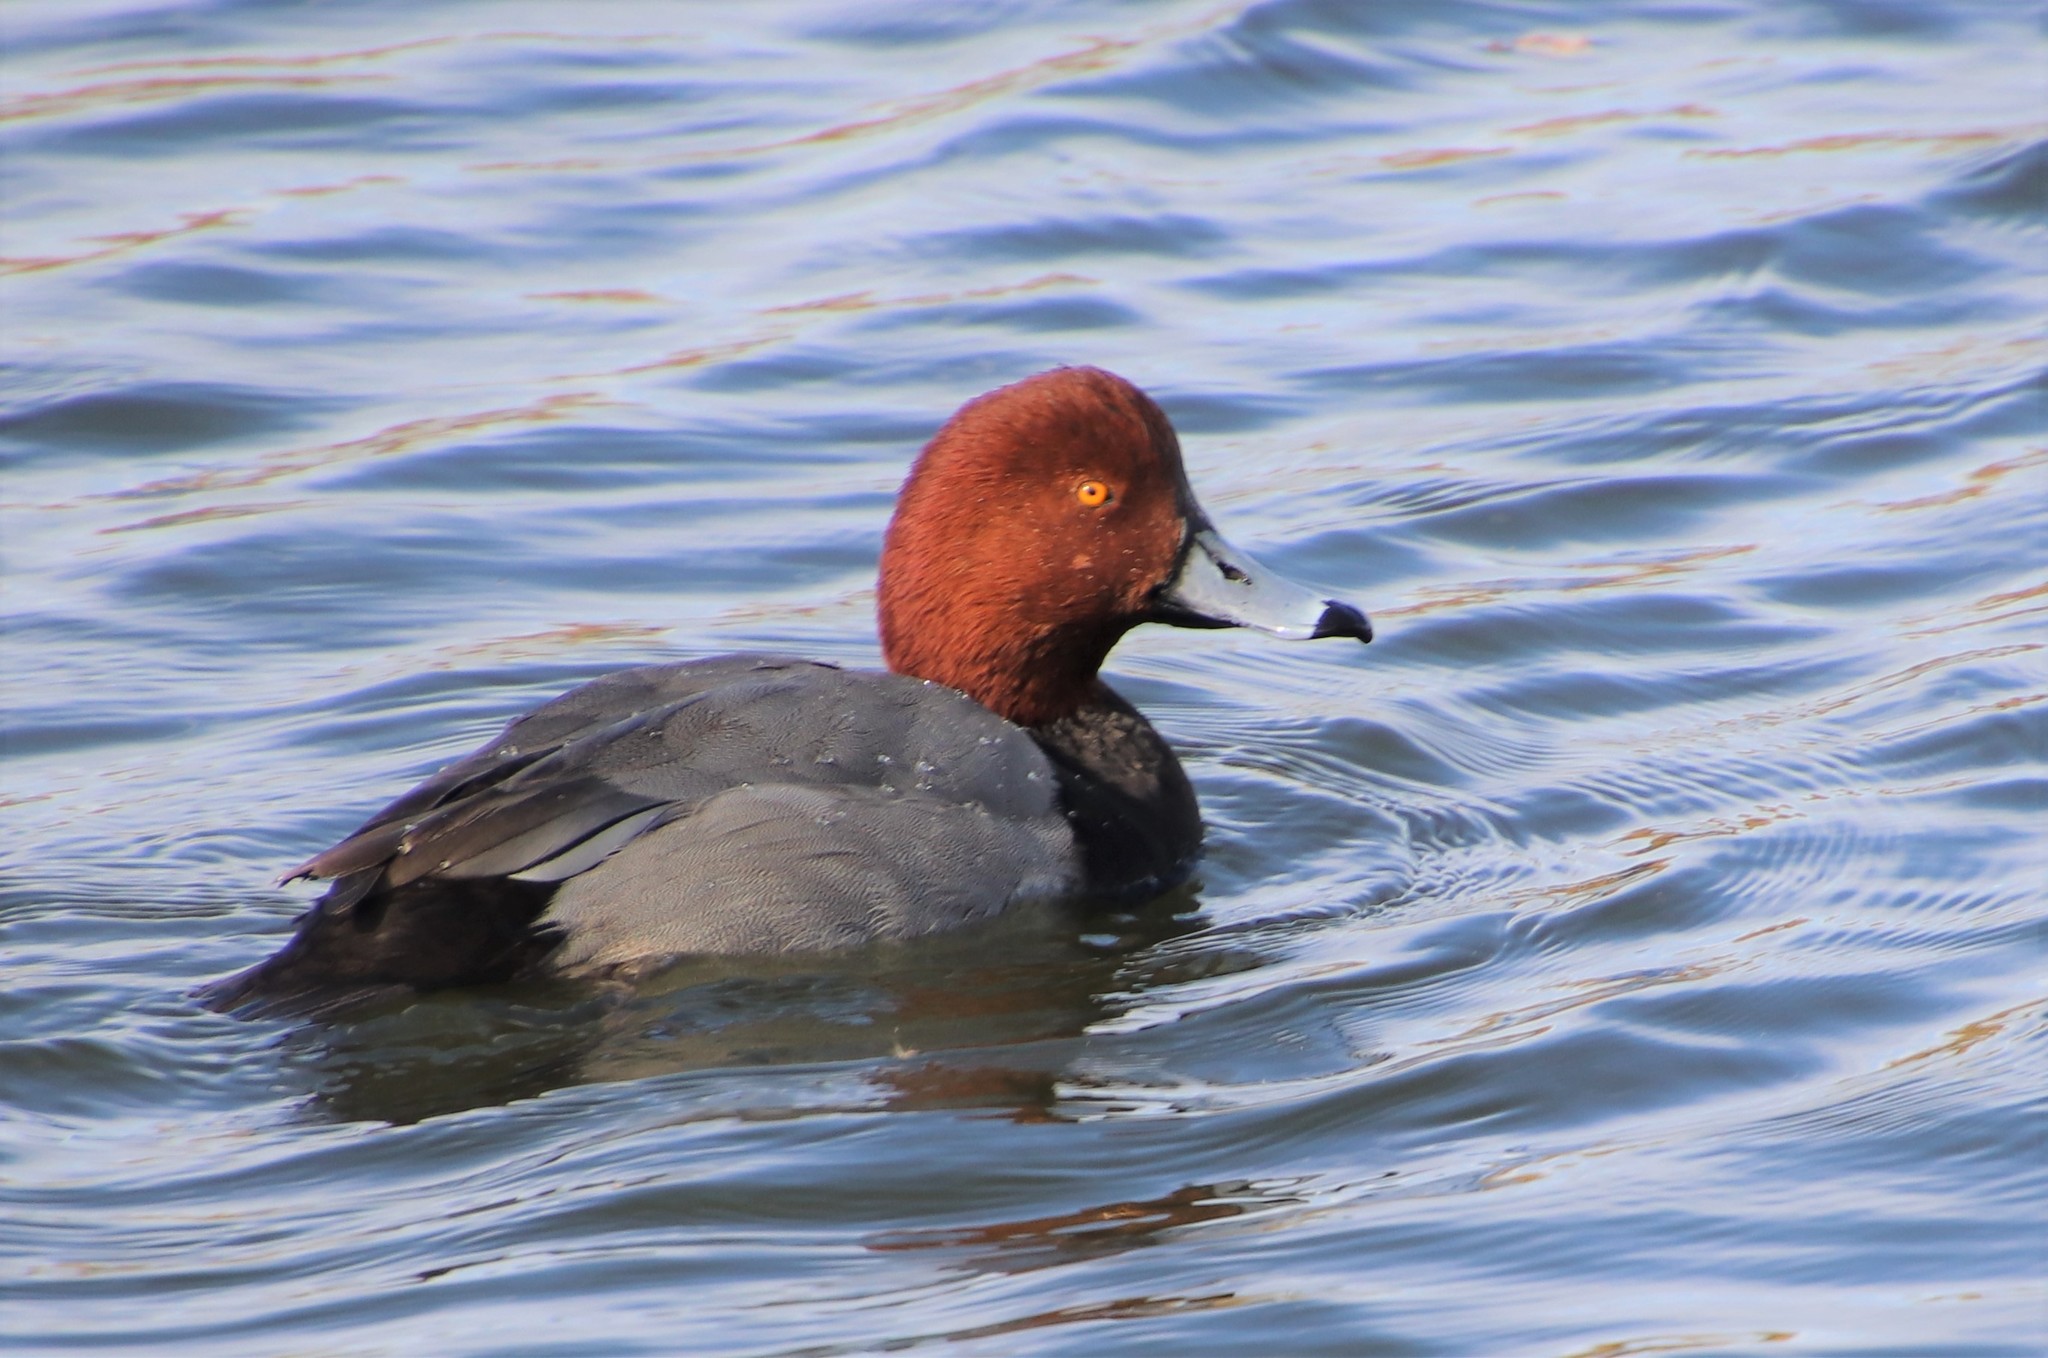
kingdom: Animalia
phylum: Chordata
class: Aves
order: Anseriformes
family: Anatidae
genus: Aythya
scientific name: Aythya americana
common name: Redhead
